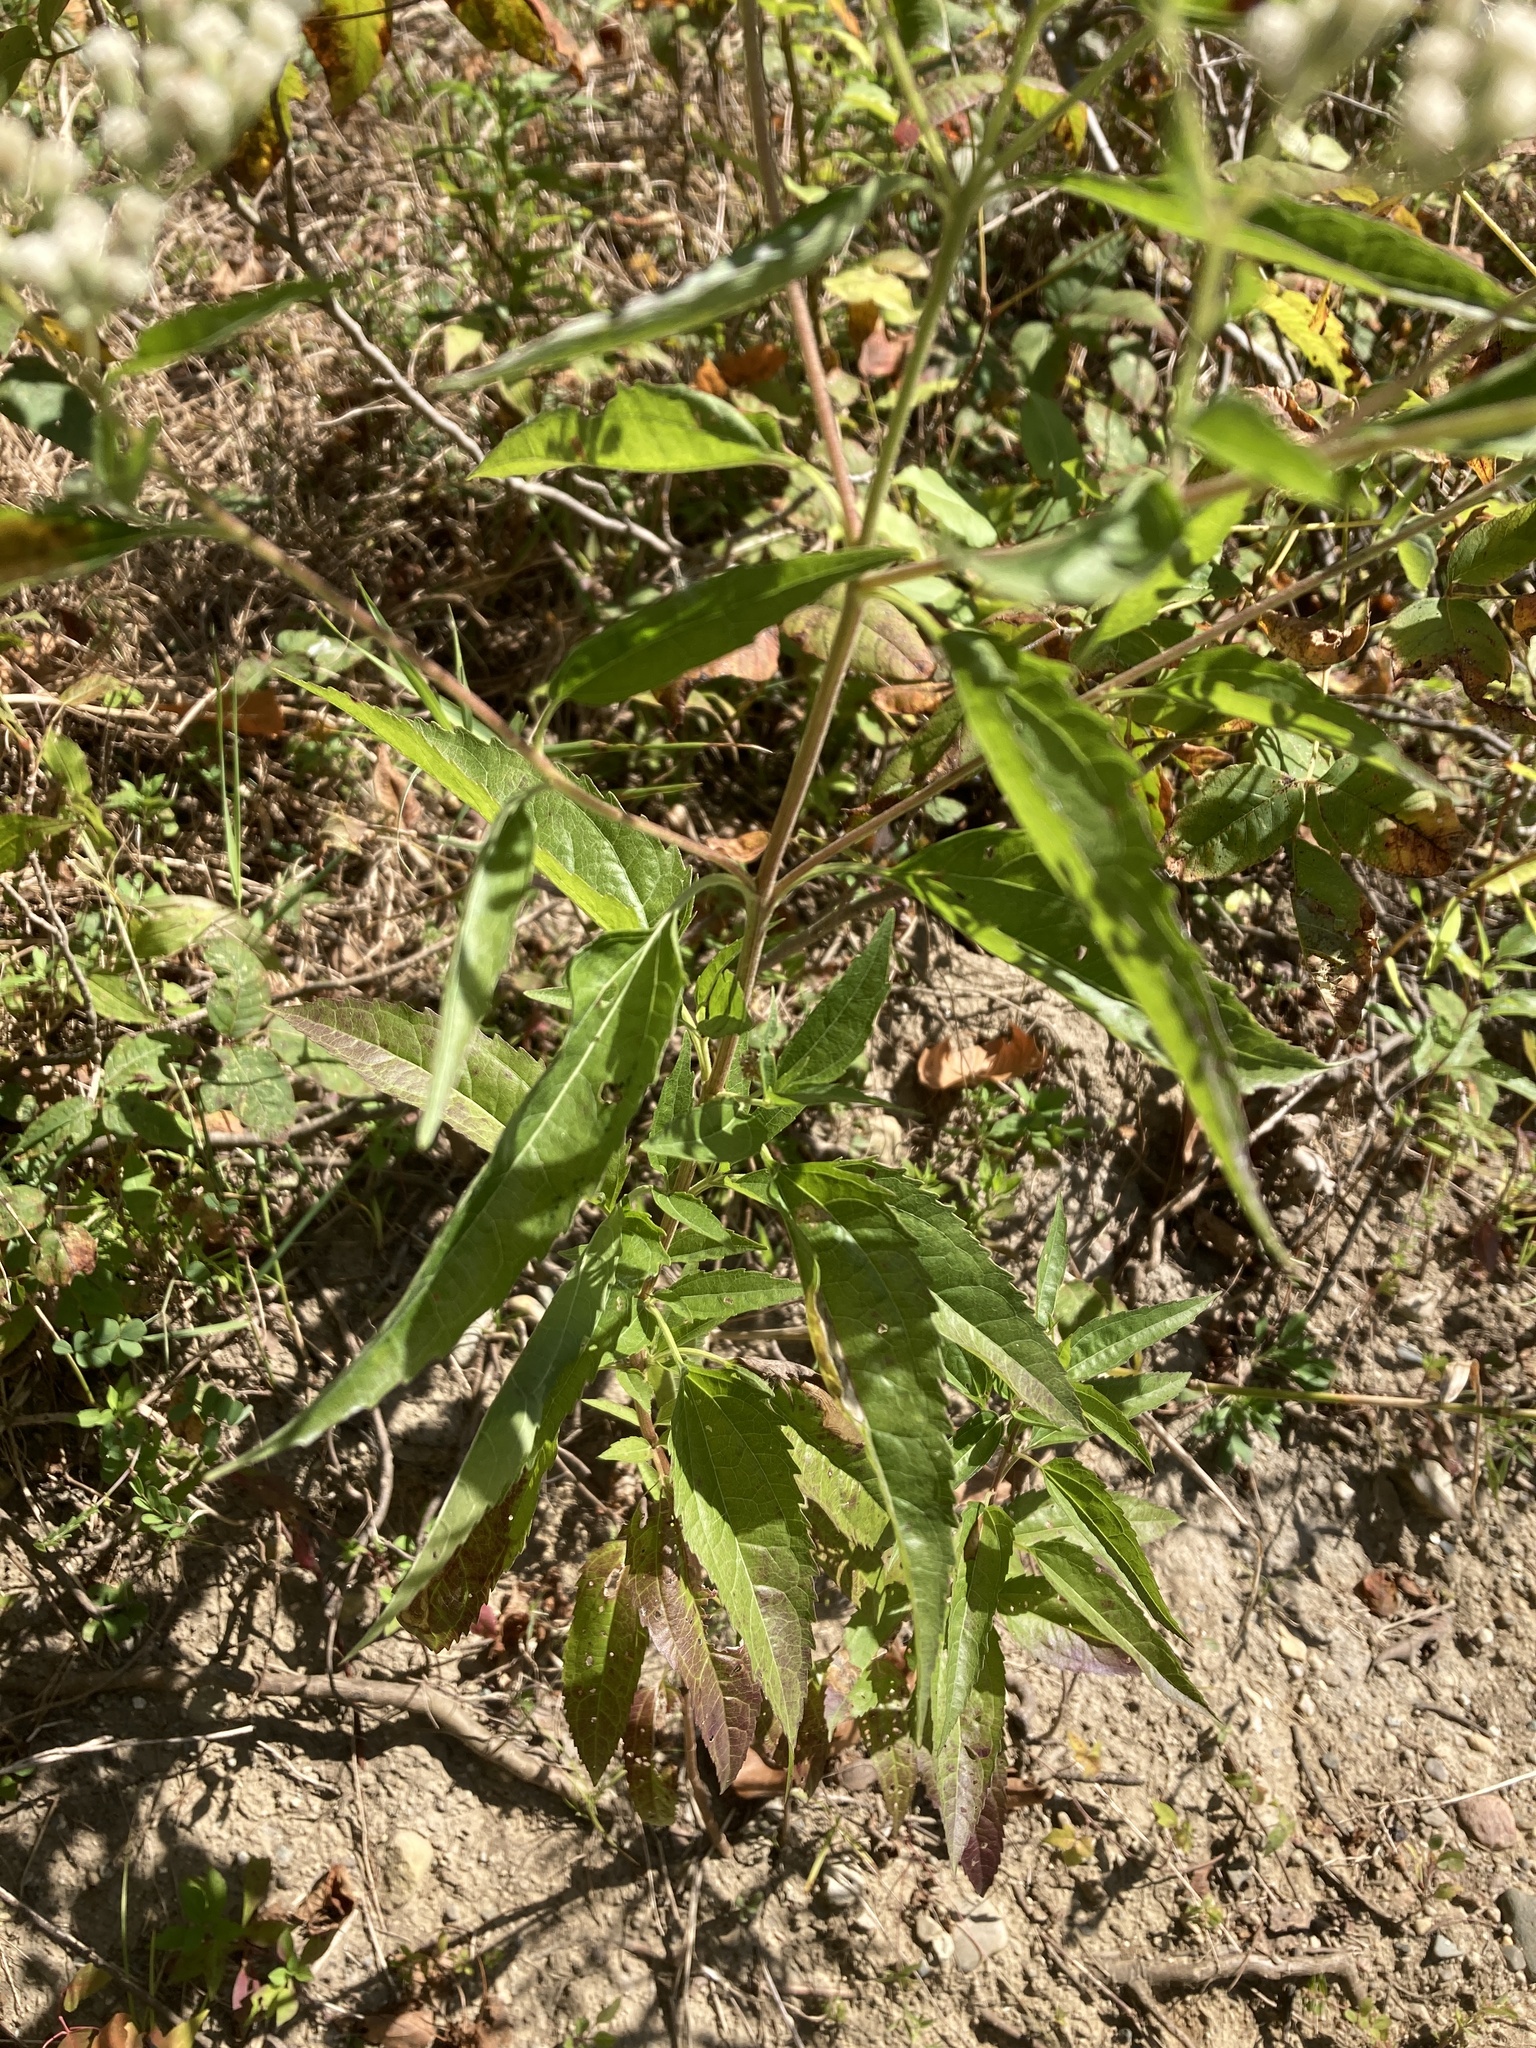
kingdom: Plantae
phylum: Tracheophyta
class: Magnoliopsida
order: Asterales
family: Asteraceae
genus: Eupatorium
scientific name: Eupatorium serotinum
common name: Late boneset
